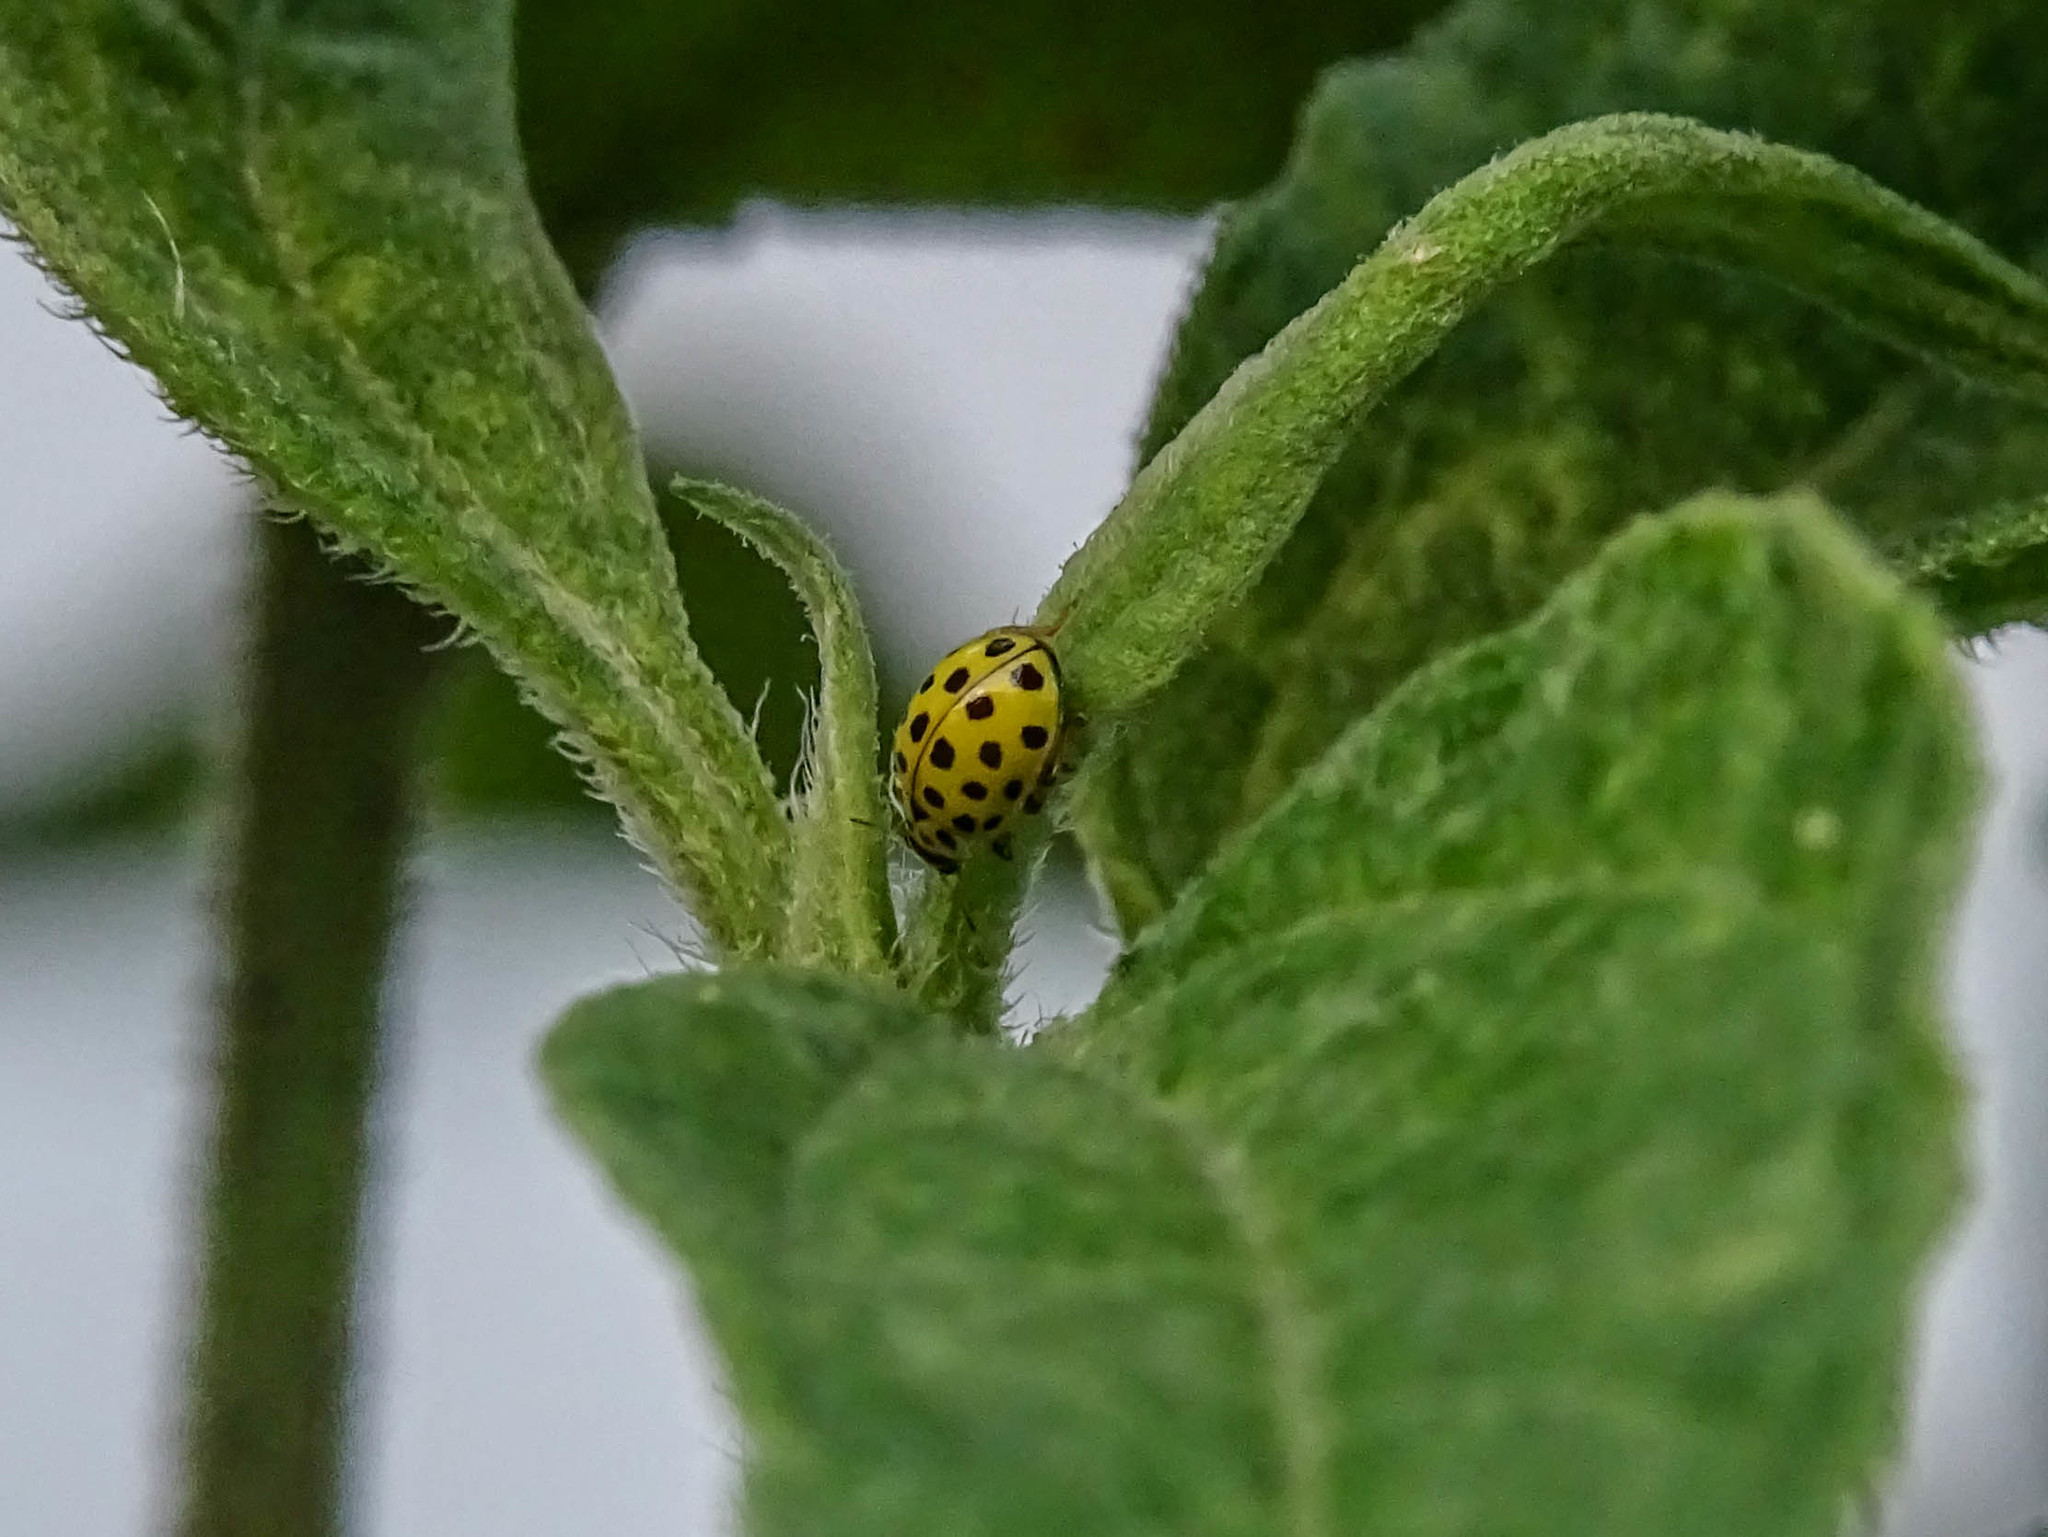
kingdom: Animalia
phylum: Arthropoda
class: Insecta
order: Coleoptera
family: Coccinellidae
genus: Psyllobora
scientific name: Psyllobora vigintiduopunctata
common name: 22-spot ladybird
